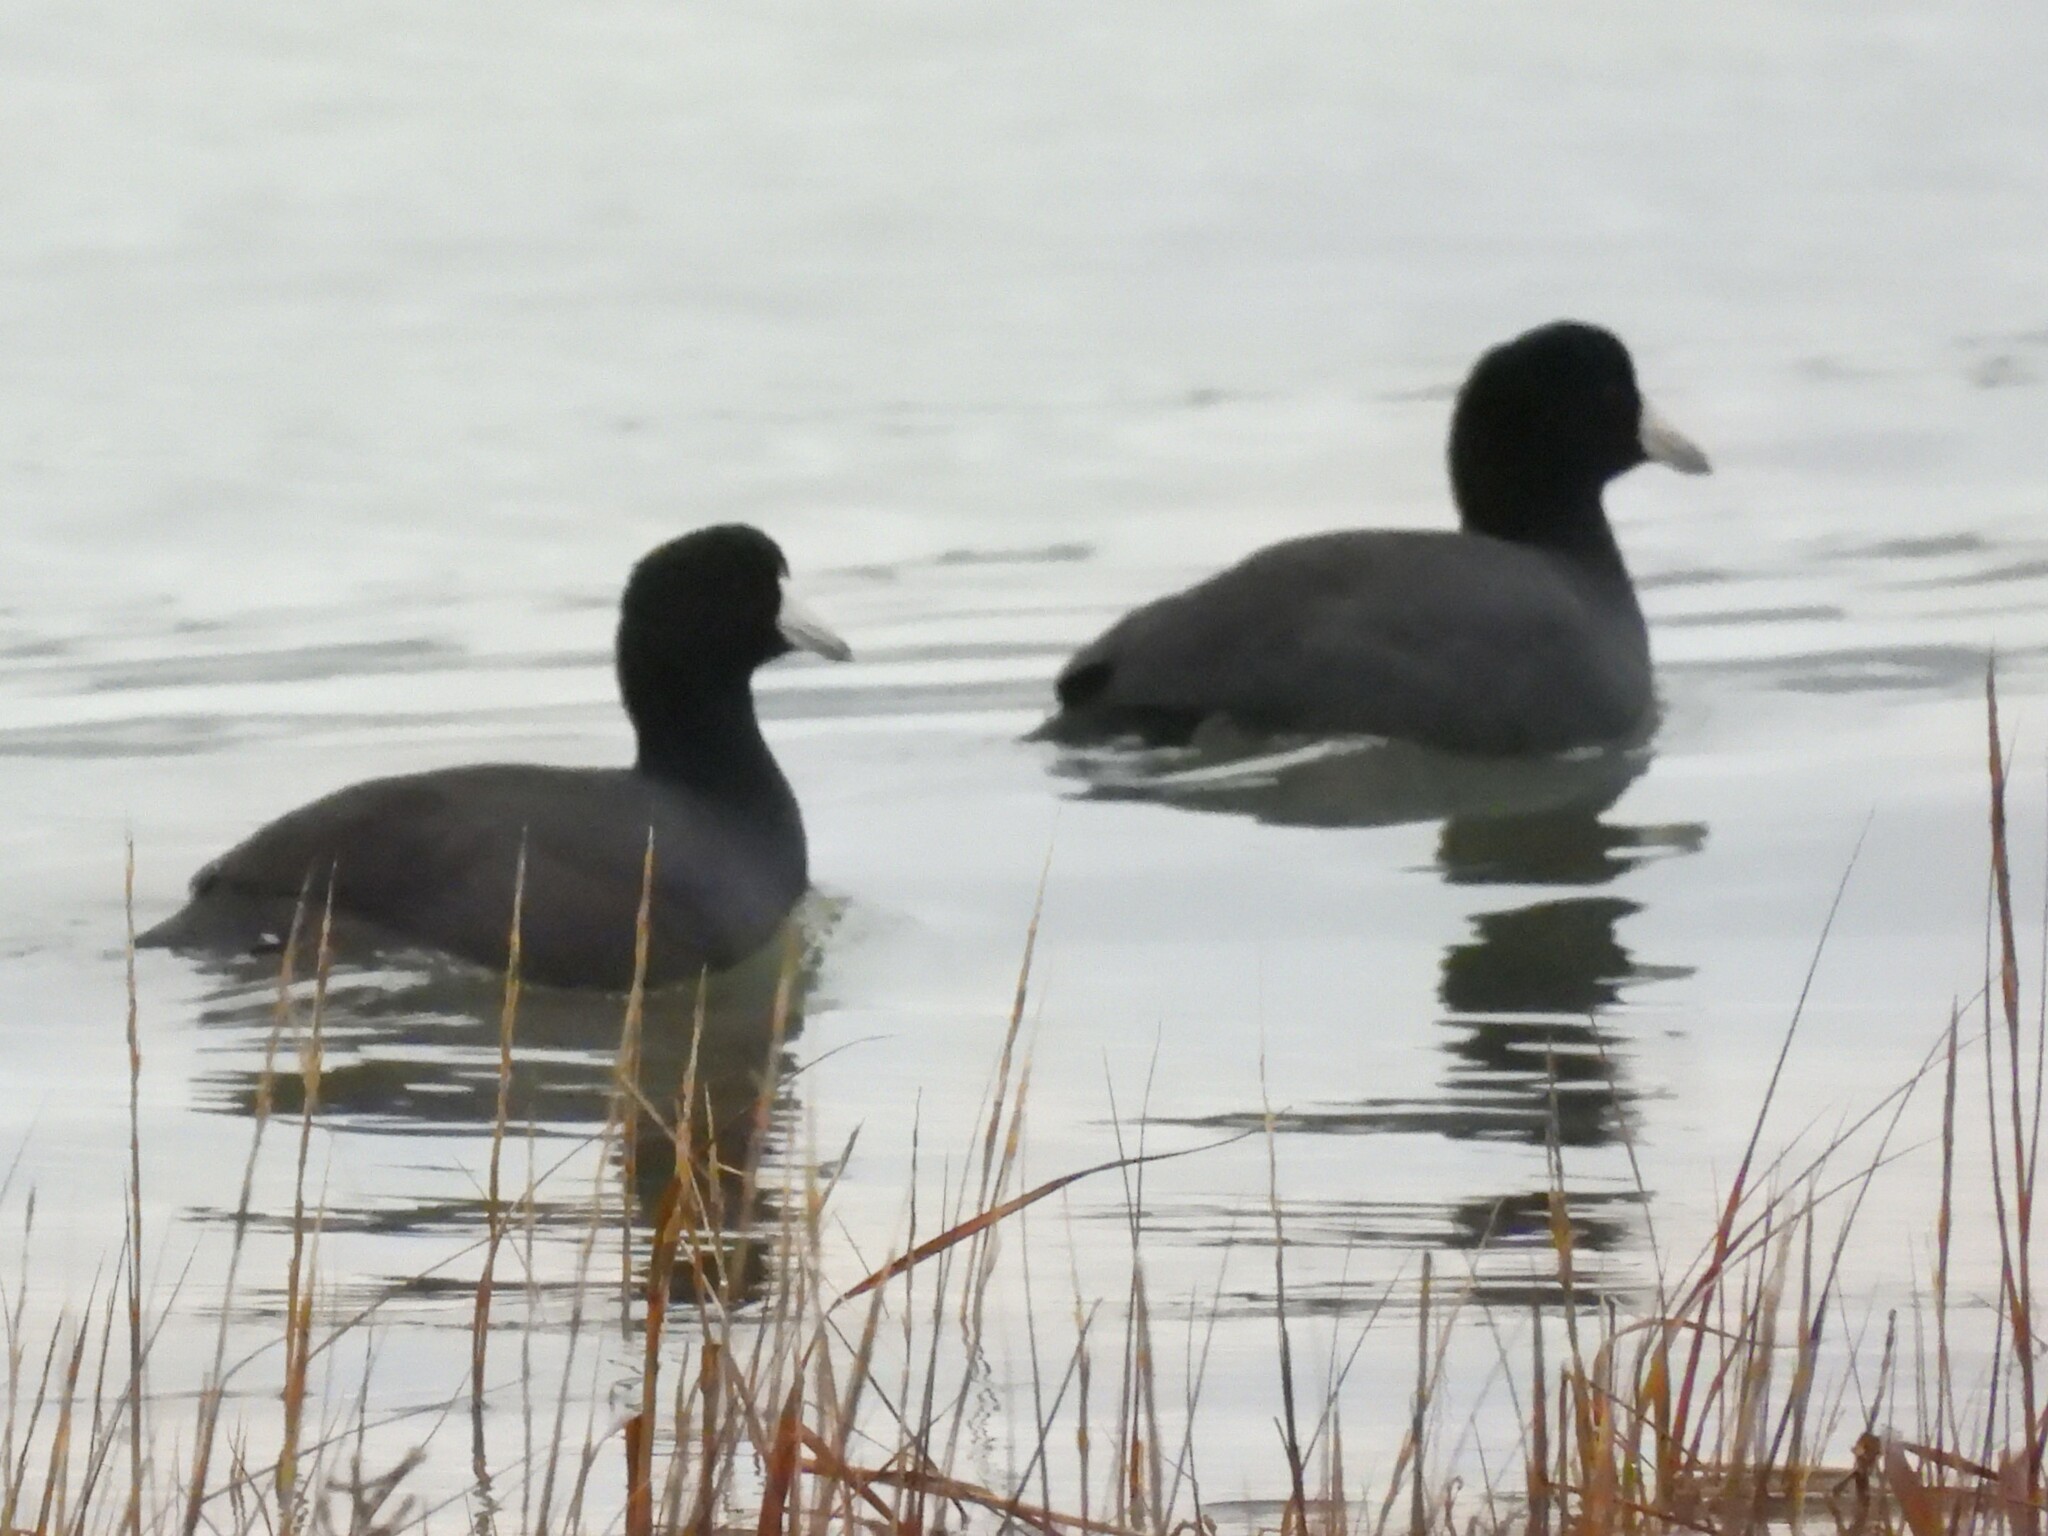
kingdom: Animalia
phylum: Chordata
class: Aves
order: Gruiformes
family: Rallidae
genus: Fulica
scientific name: Fulica americana
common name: American coot
